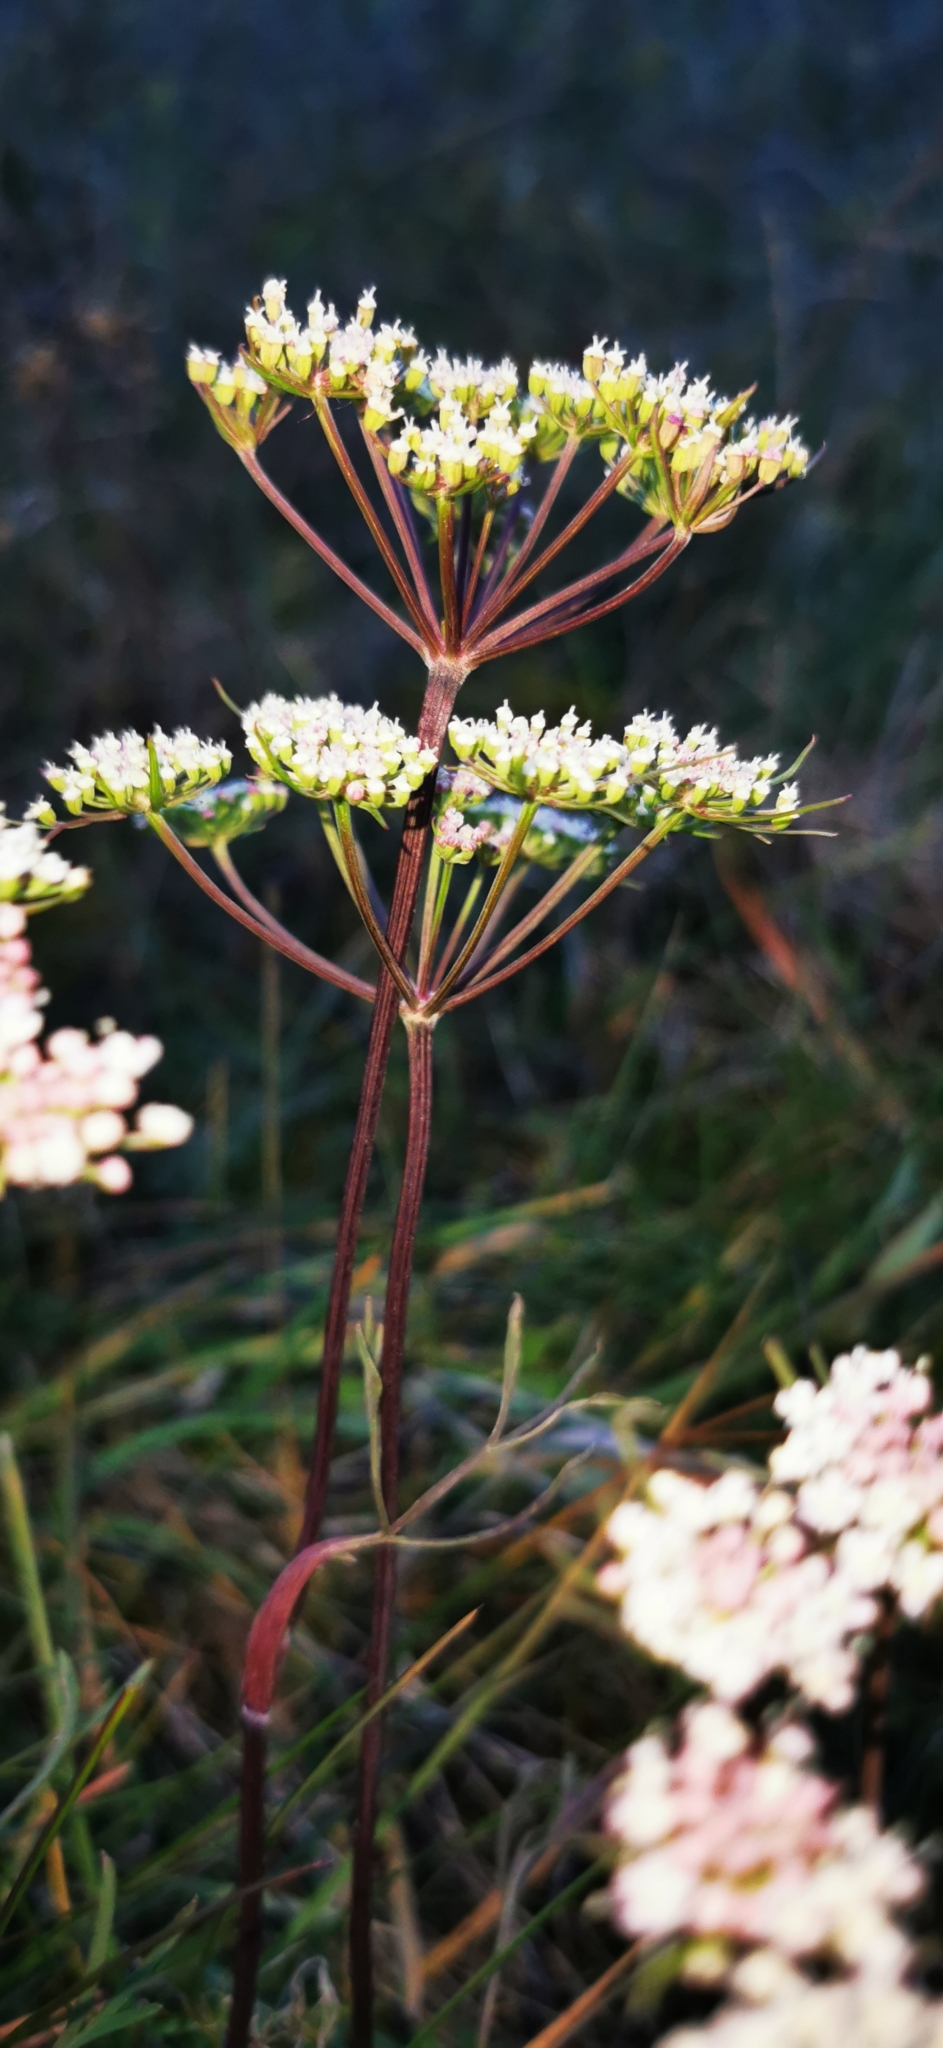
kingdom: Plantae
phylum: Tracheophyta
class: Magnoliopsida
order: Apiales
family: Apiaceae
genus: Seseli
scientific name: Seseli annuum
